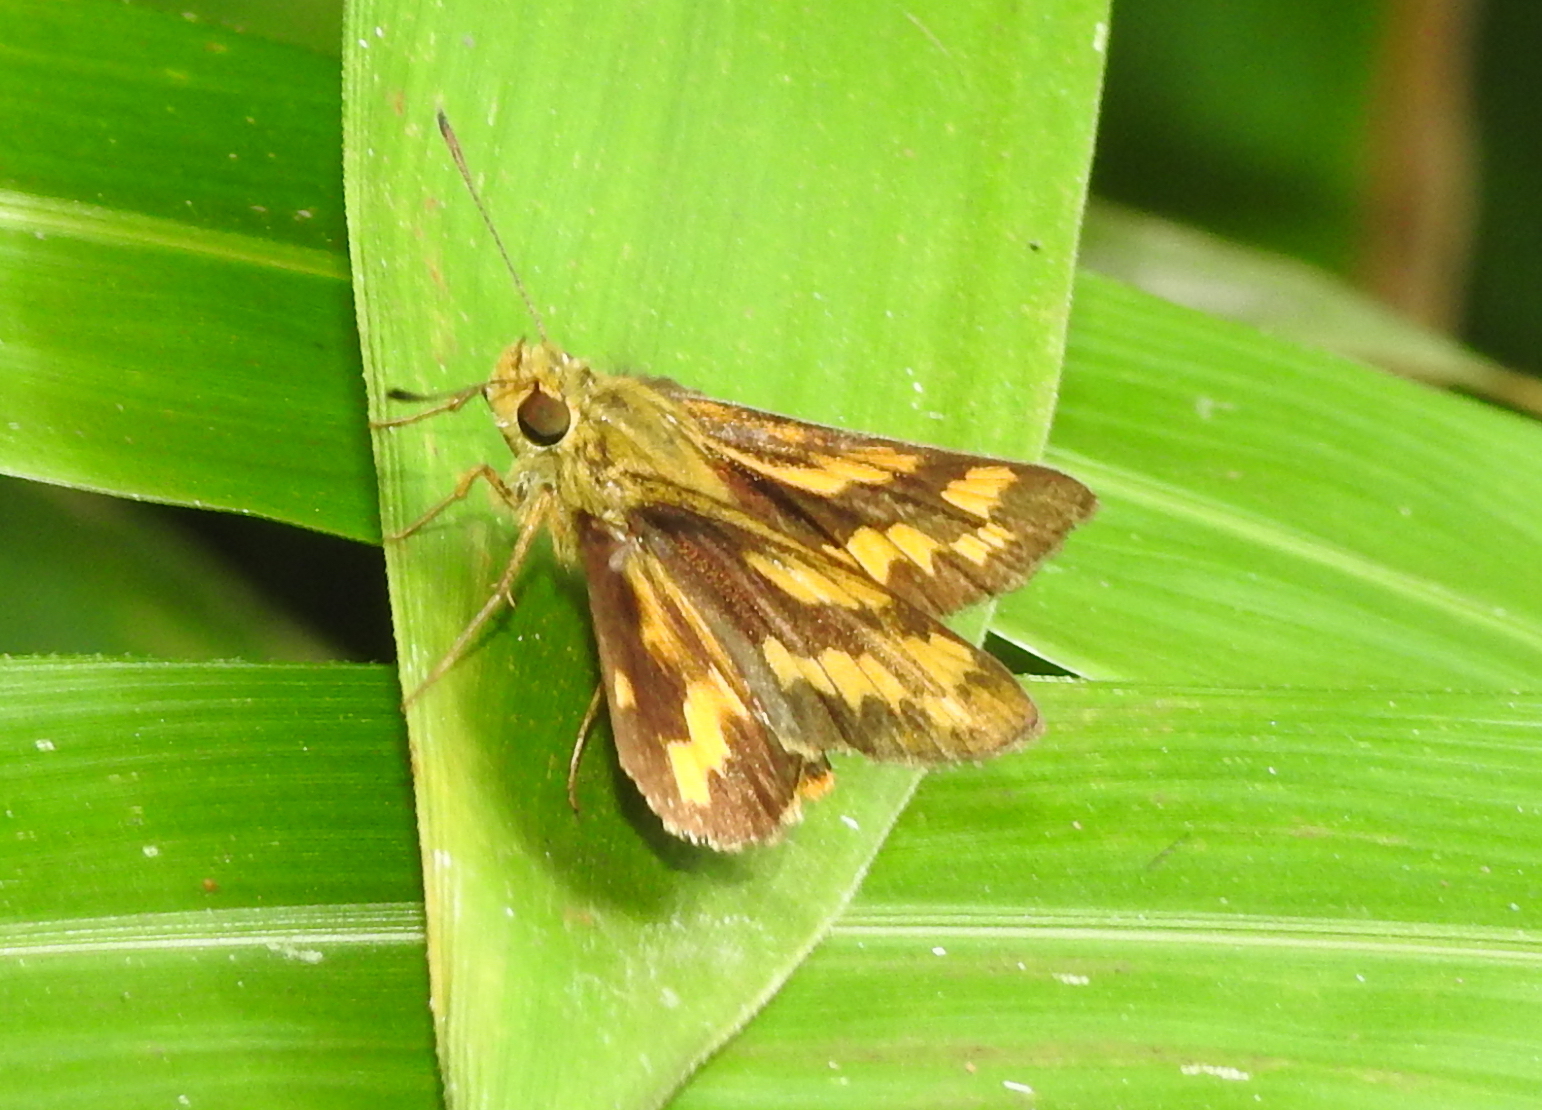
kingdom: Animalia
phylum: Arthropoda
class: Insecta
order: Lepidoptera
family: Hesperiidae
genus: Potanthus
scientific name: Potanthus omaha
